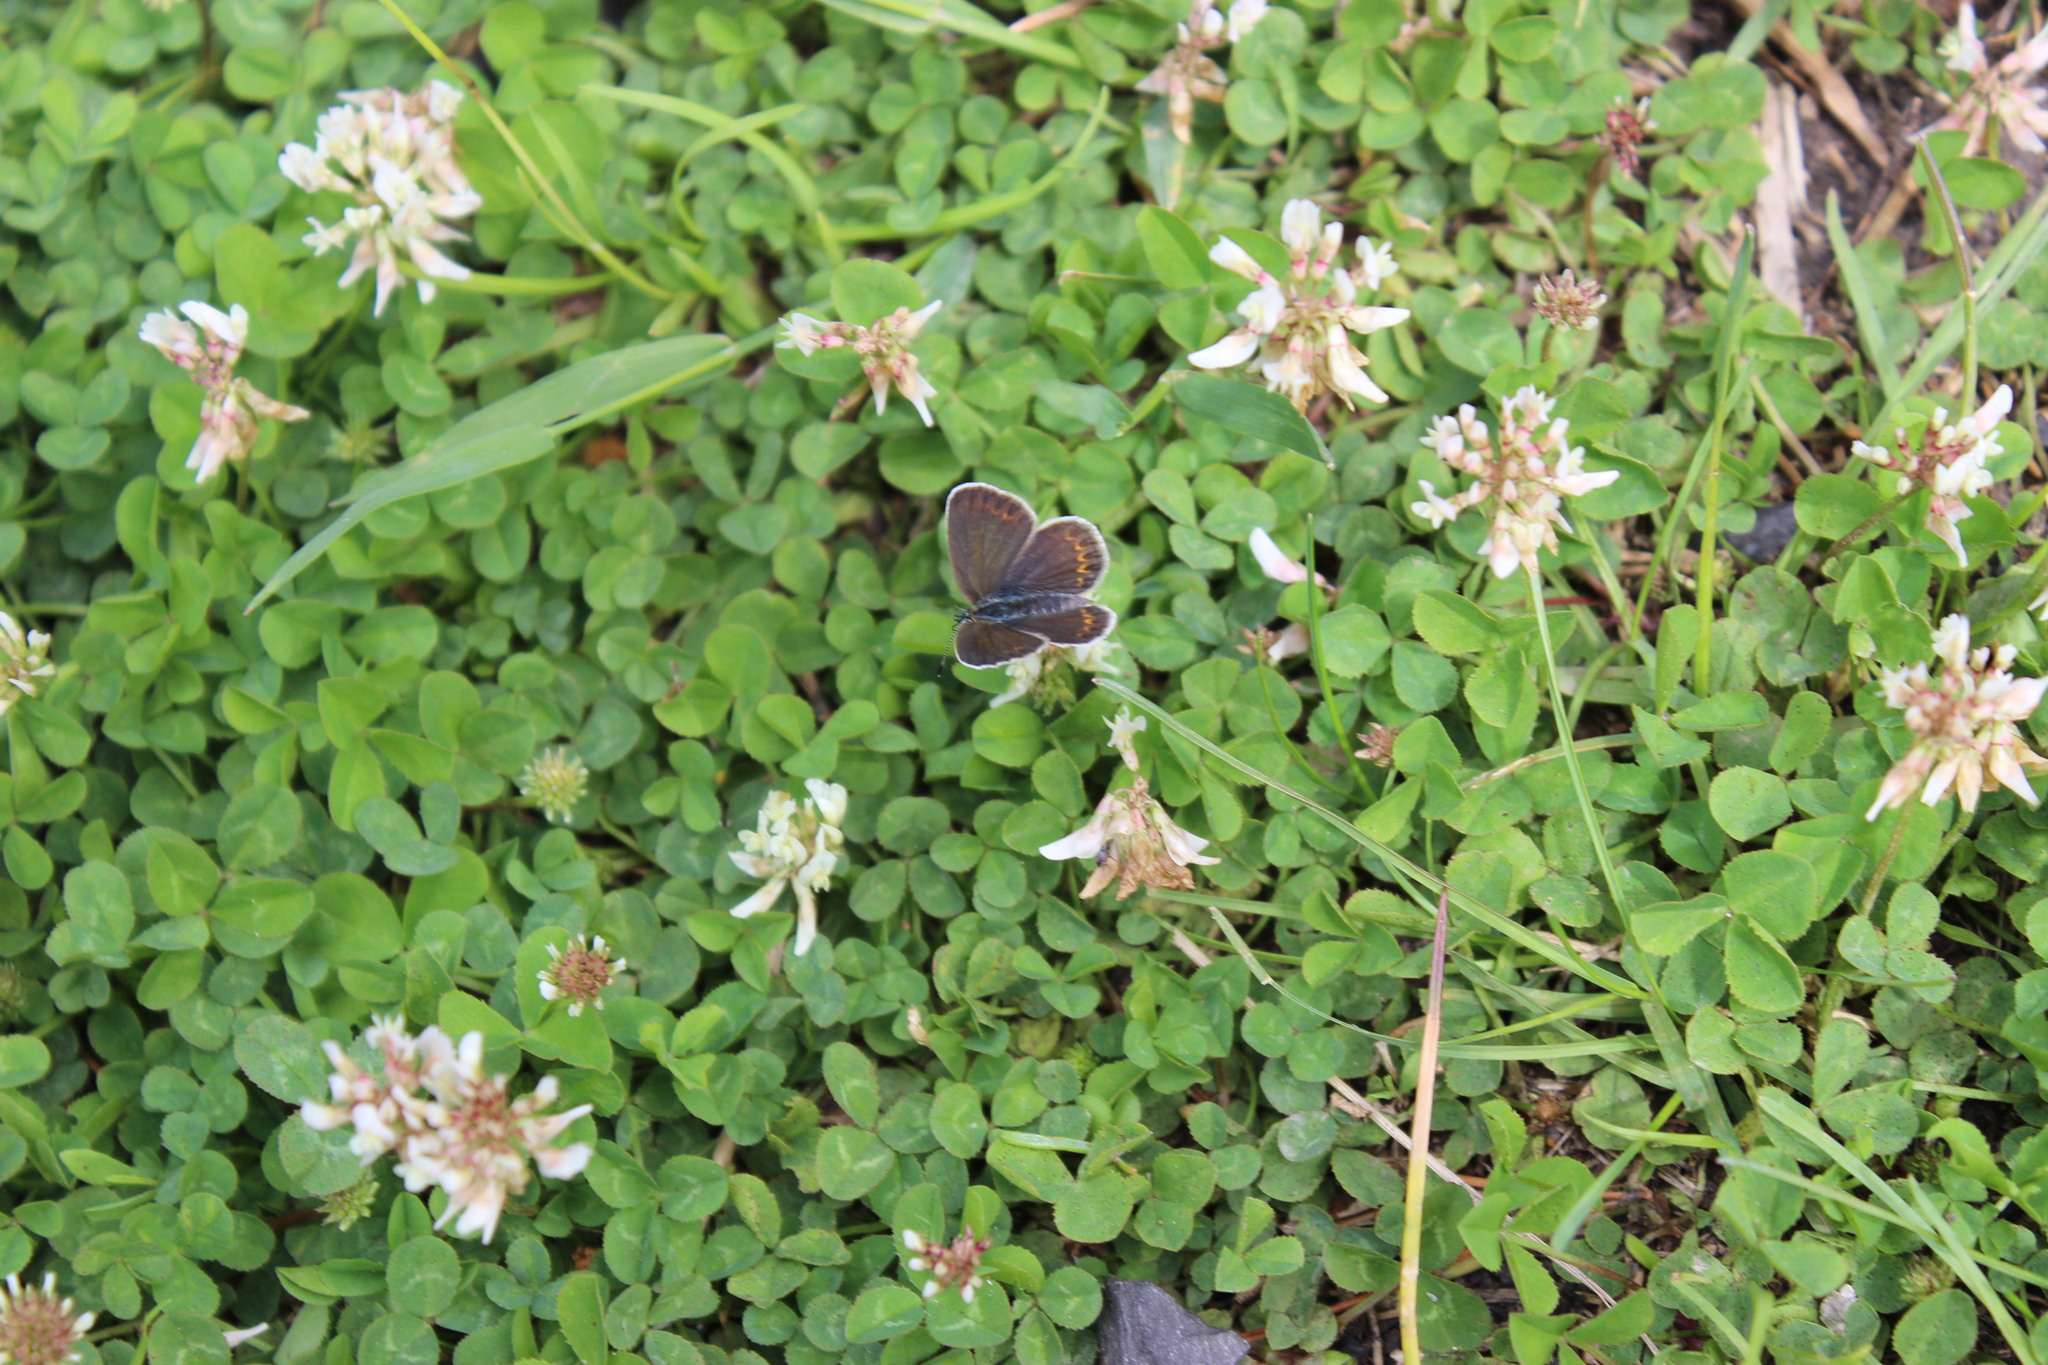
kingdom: Animalia
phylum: Arthropoda
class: Insecta
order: Lepidoptera
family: Lycaenidae
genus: Plebejus
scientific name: Plebejus argus
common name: Silver-studded blue
